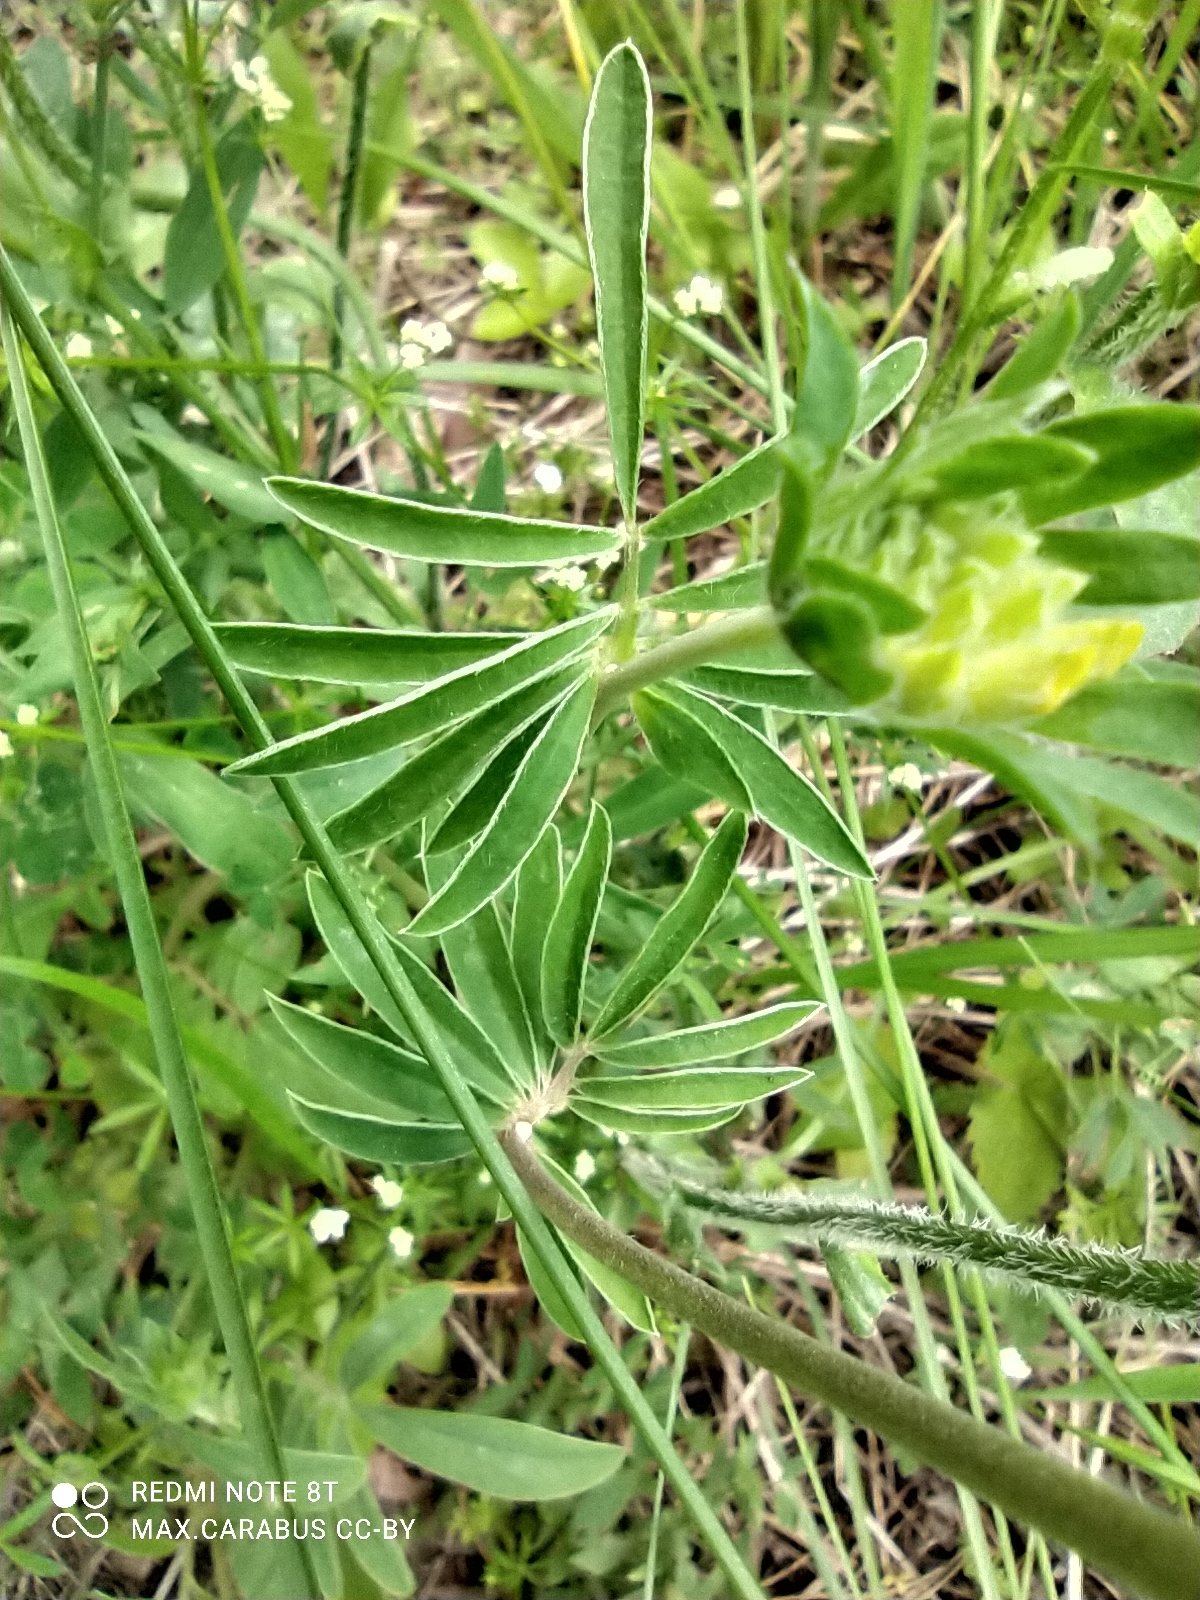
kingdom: Plantae
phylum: Tracheophyta
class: Magnoliopsida
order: Fabales
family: Fabaceae
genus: Anthyllis
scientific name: Anthyllis vulneraria
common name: Kidney vetch
